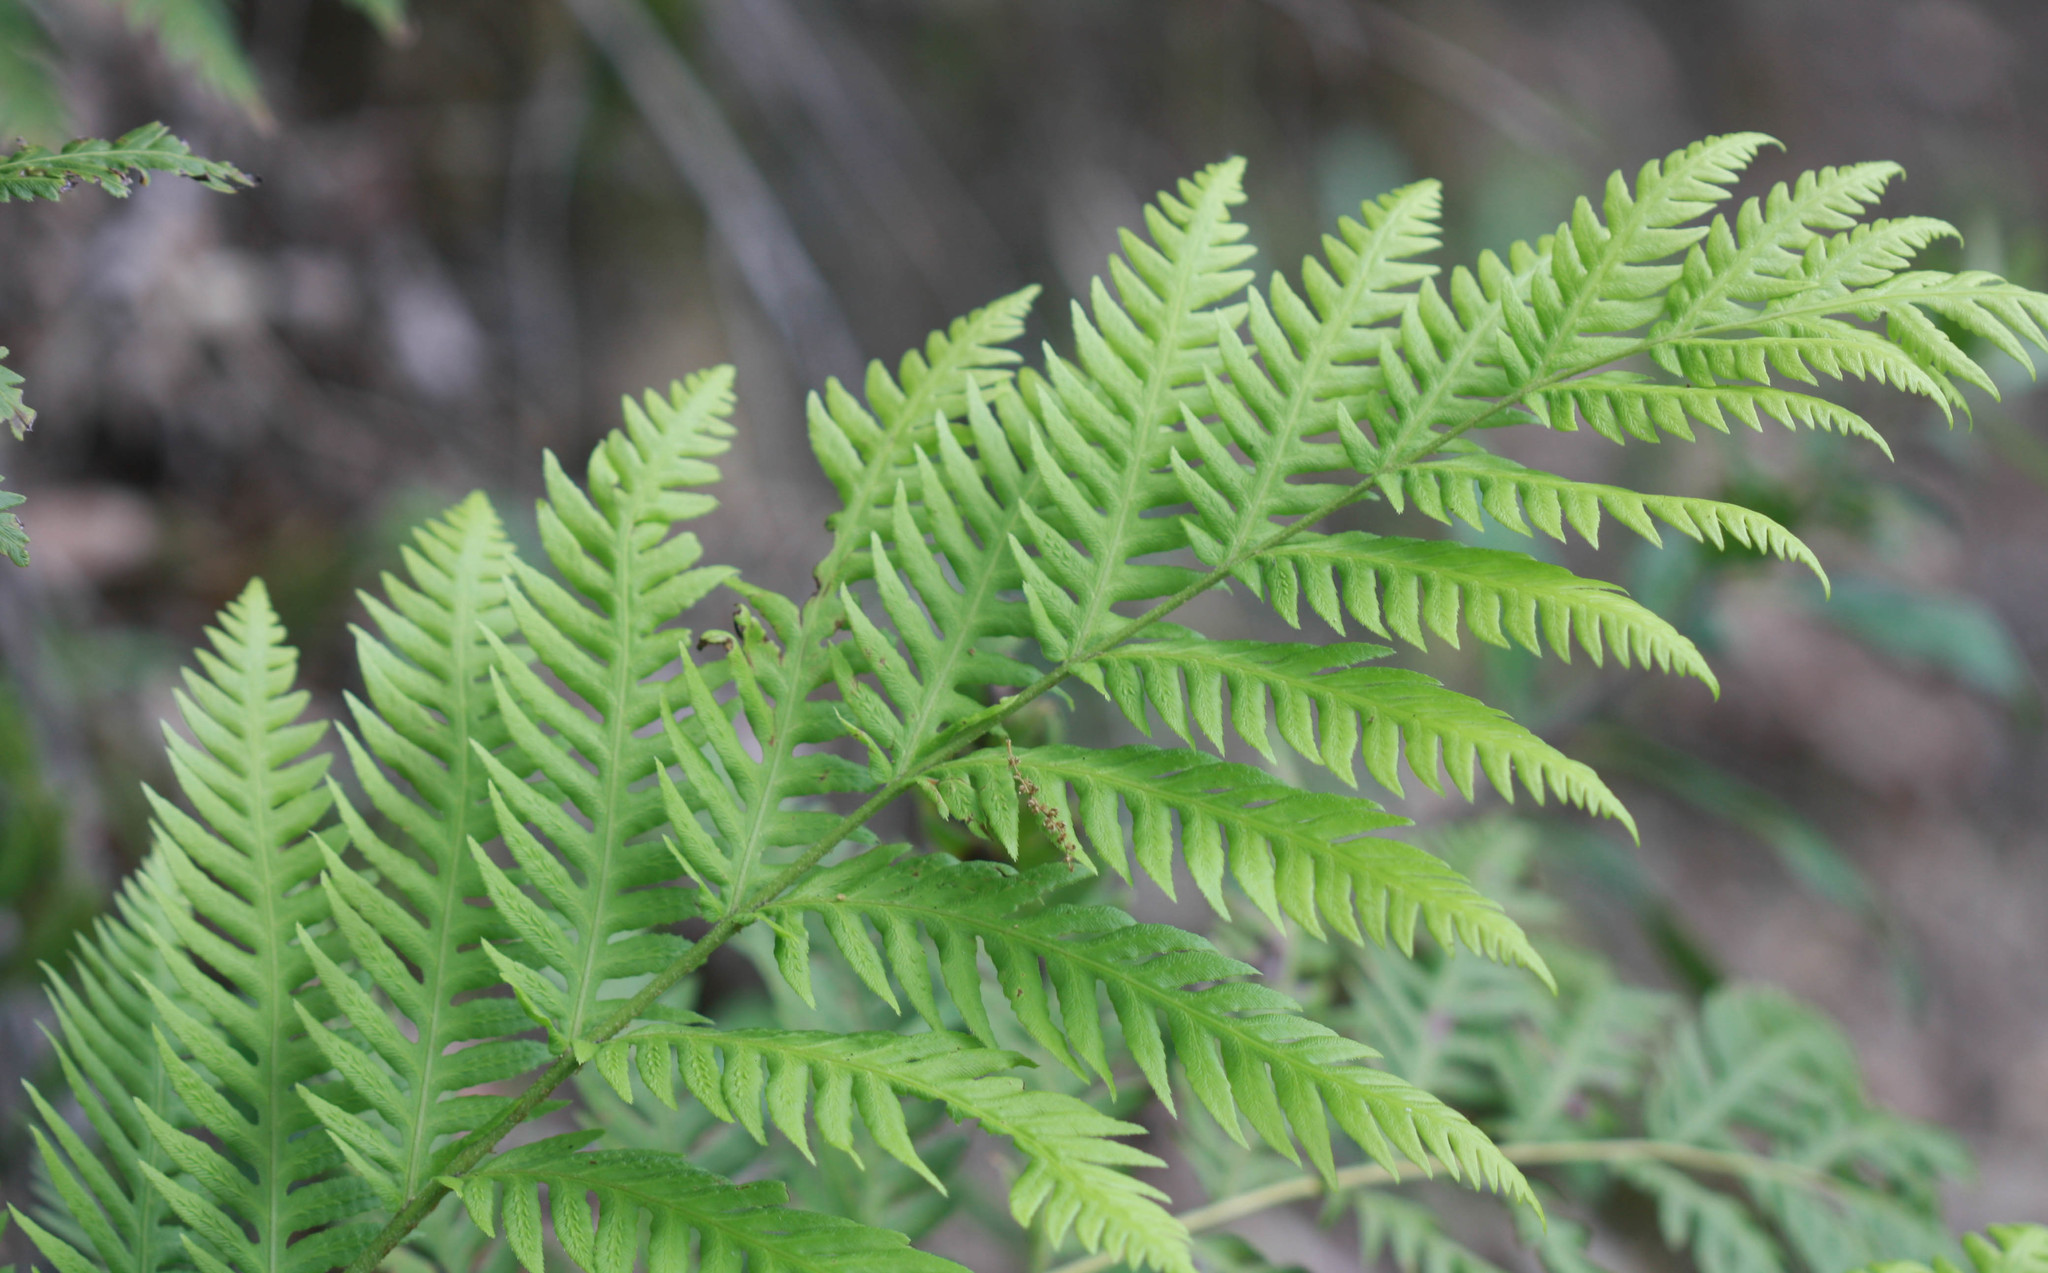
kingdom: Plantae
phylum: Tracheophyta
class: Polypodiopsida
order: Polypodiales
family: Blechnaceae
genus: Woodwardia
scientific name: Woodwardia fimbriata
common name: Giant chain fern
